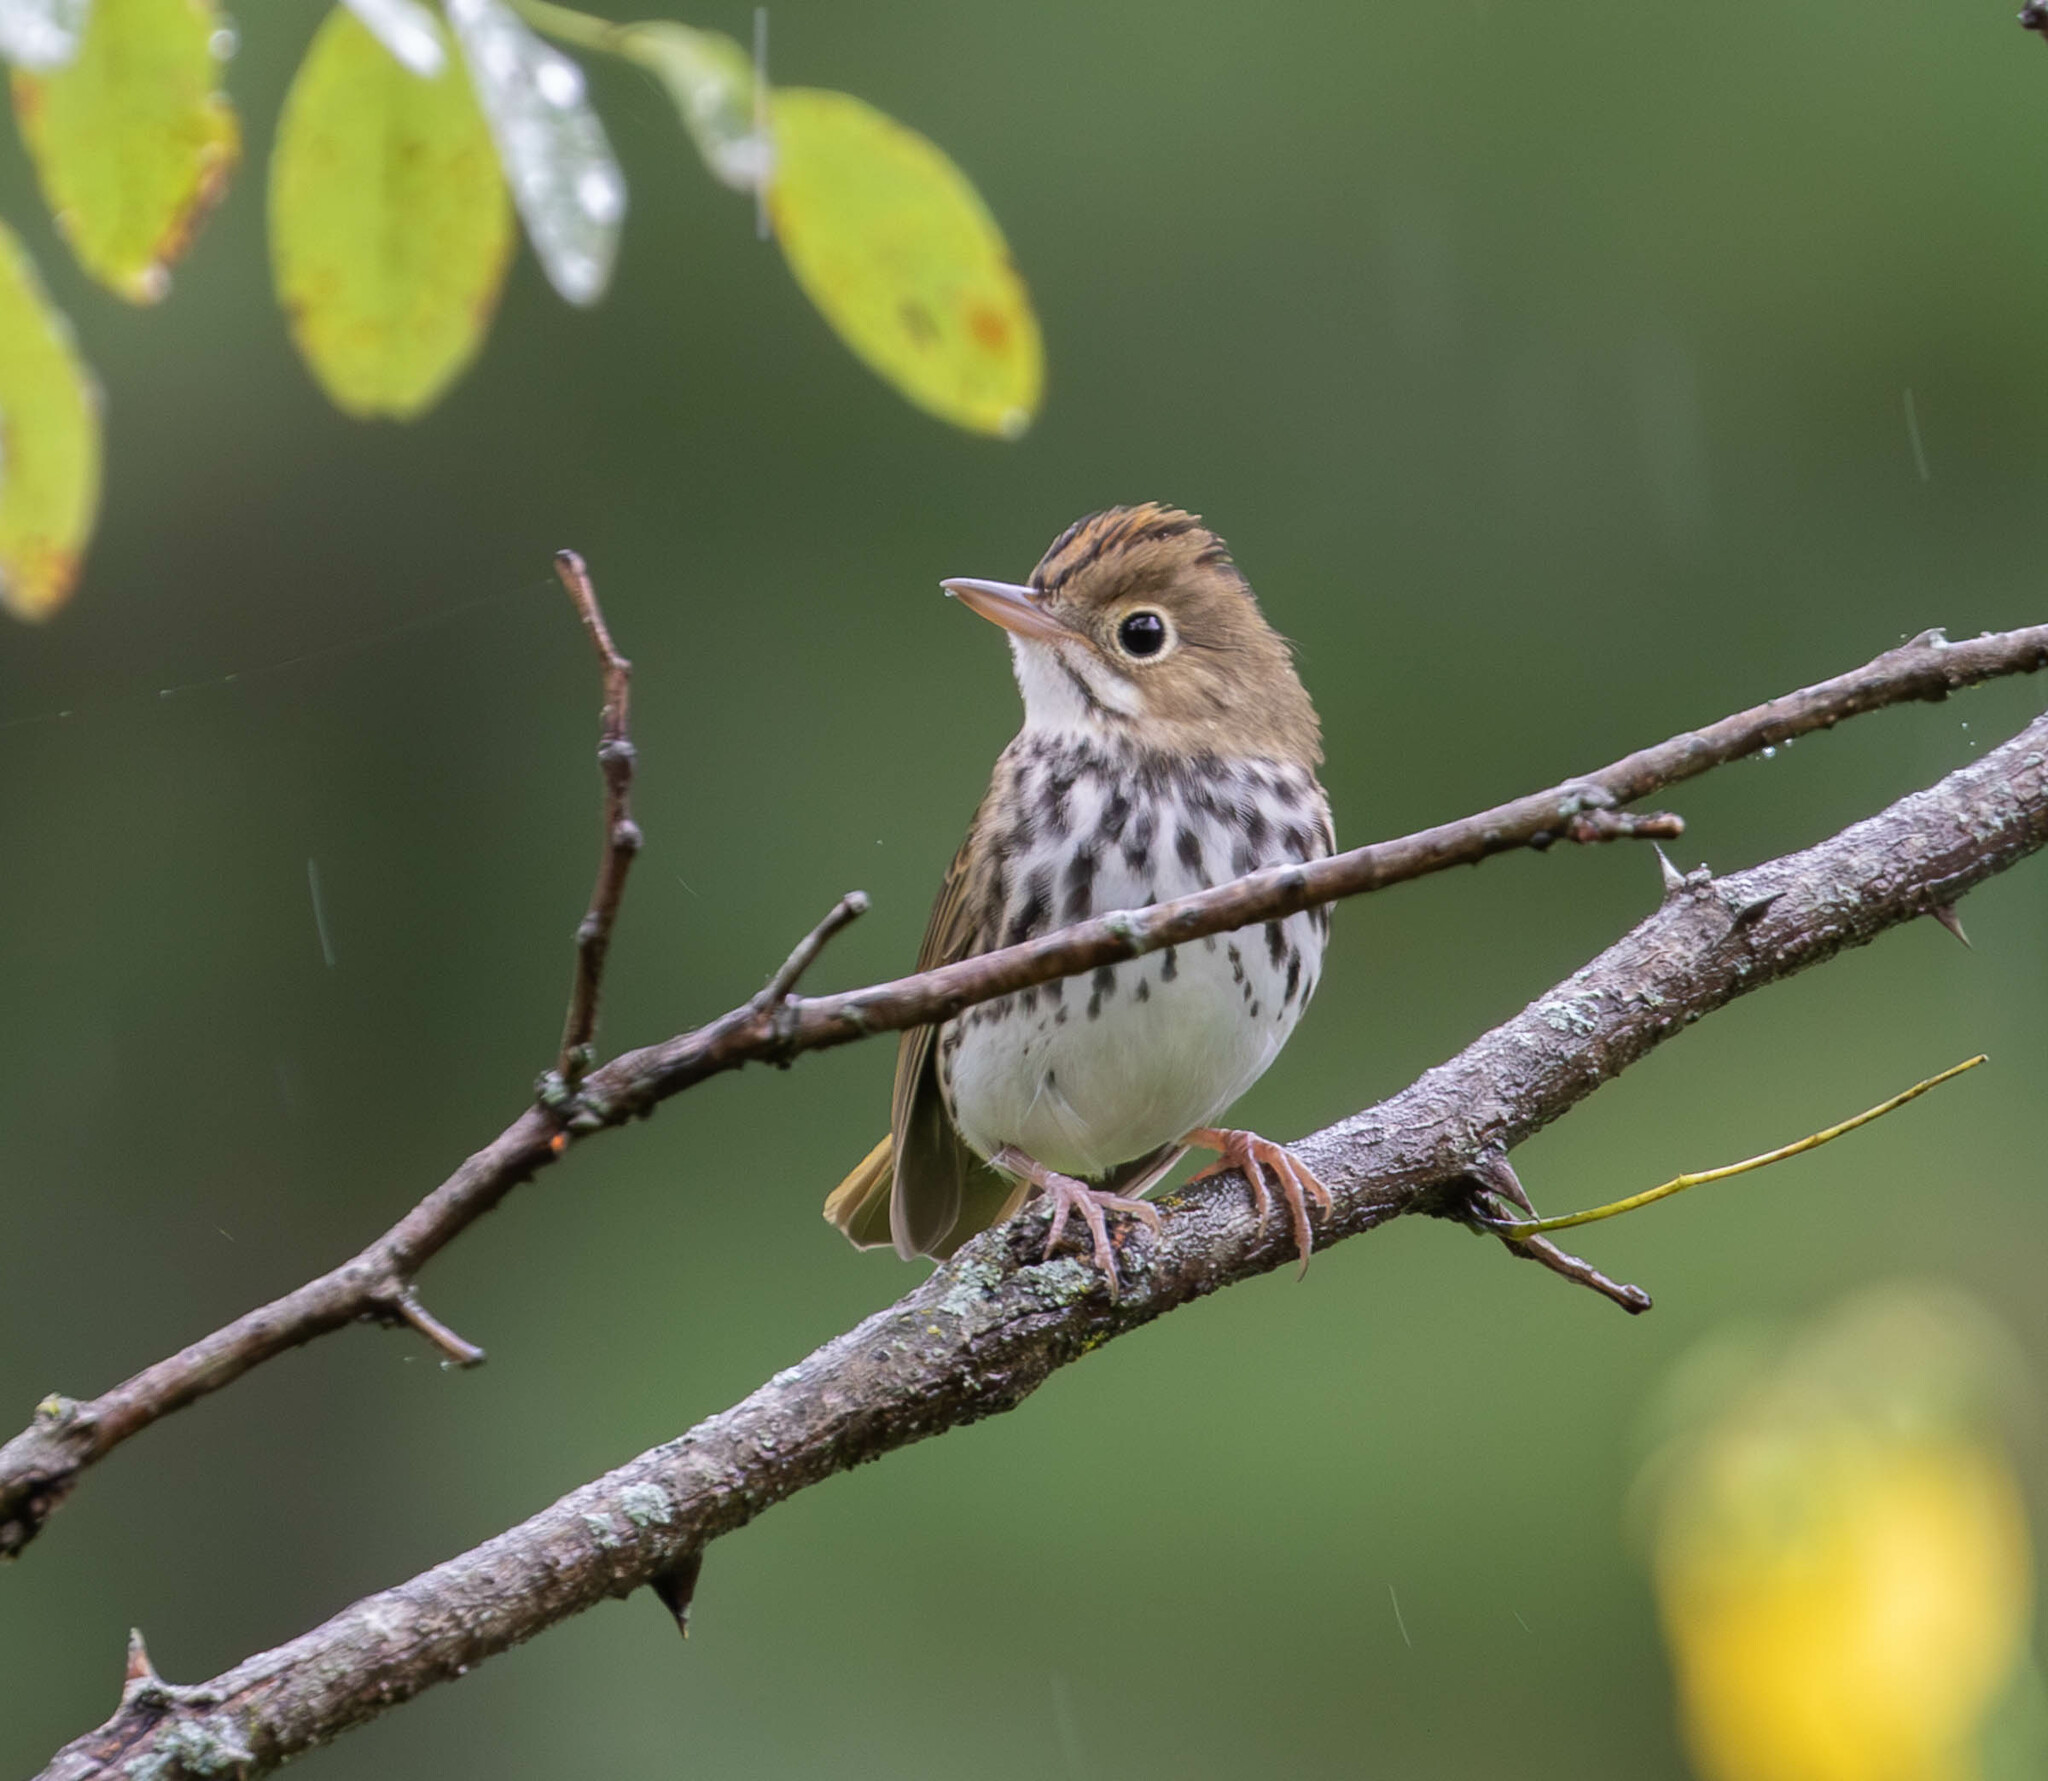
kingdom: Animalia
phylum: Chordata
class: Aves
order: Passeriformes
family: Parulidae
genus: Seiurus
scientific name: Seiurus aurocapilla
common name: Ovenbird
